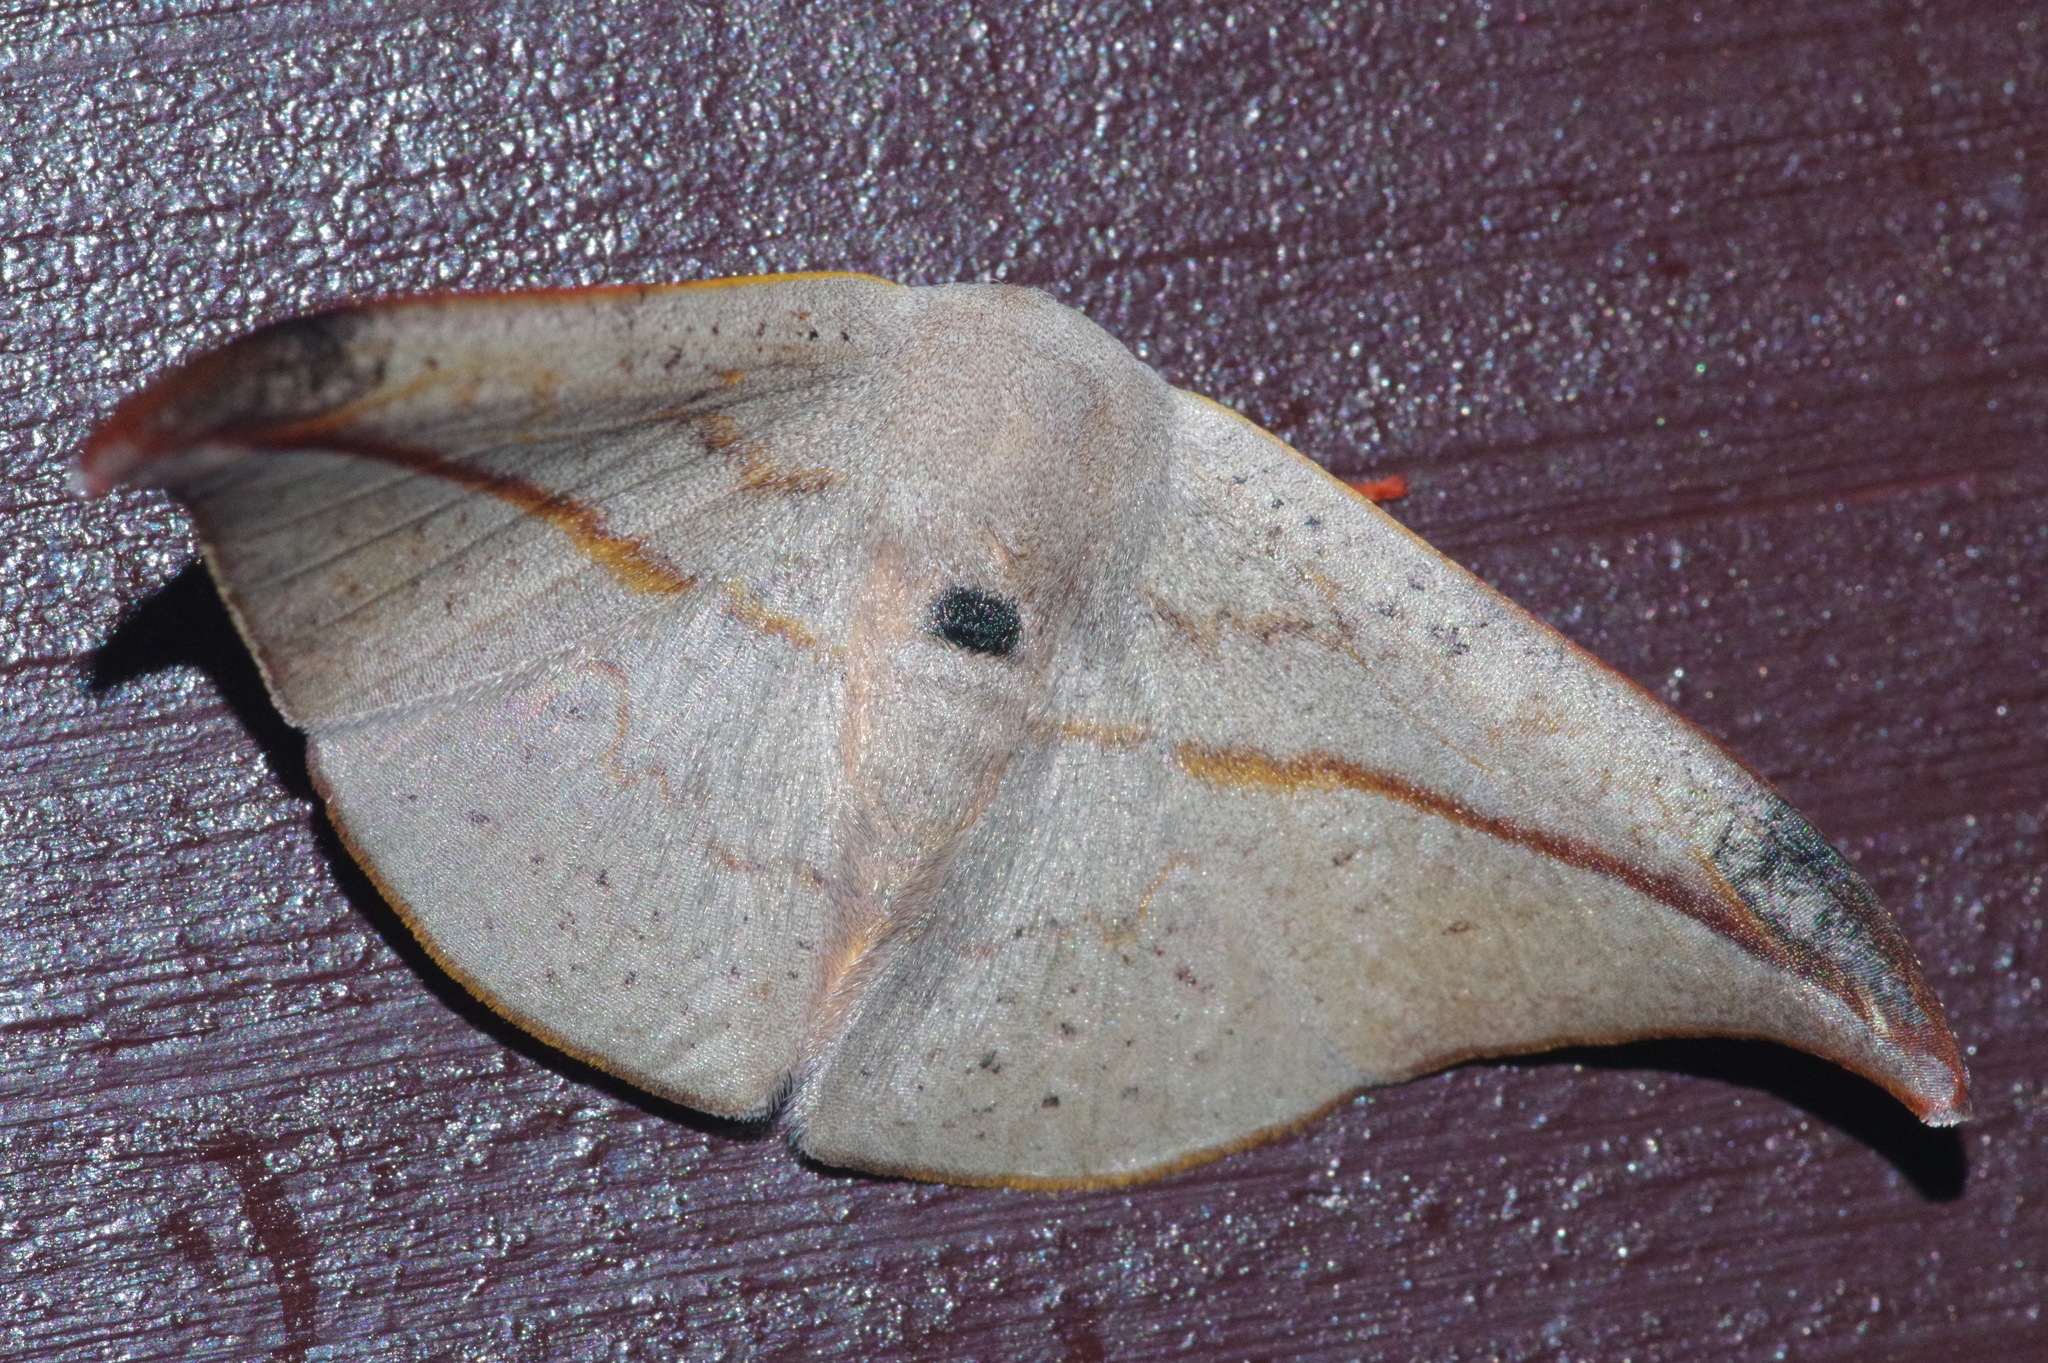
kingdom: Animalia
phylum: Arthropoda
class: Insecta
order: Lepidoptera
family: Drepanidae
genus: Oreta
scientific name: Oreta insignis
